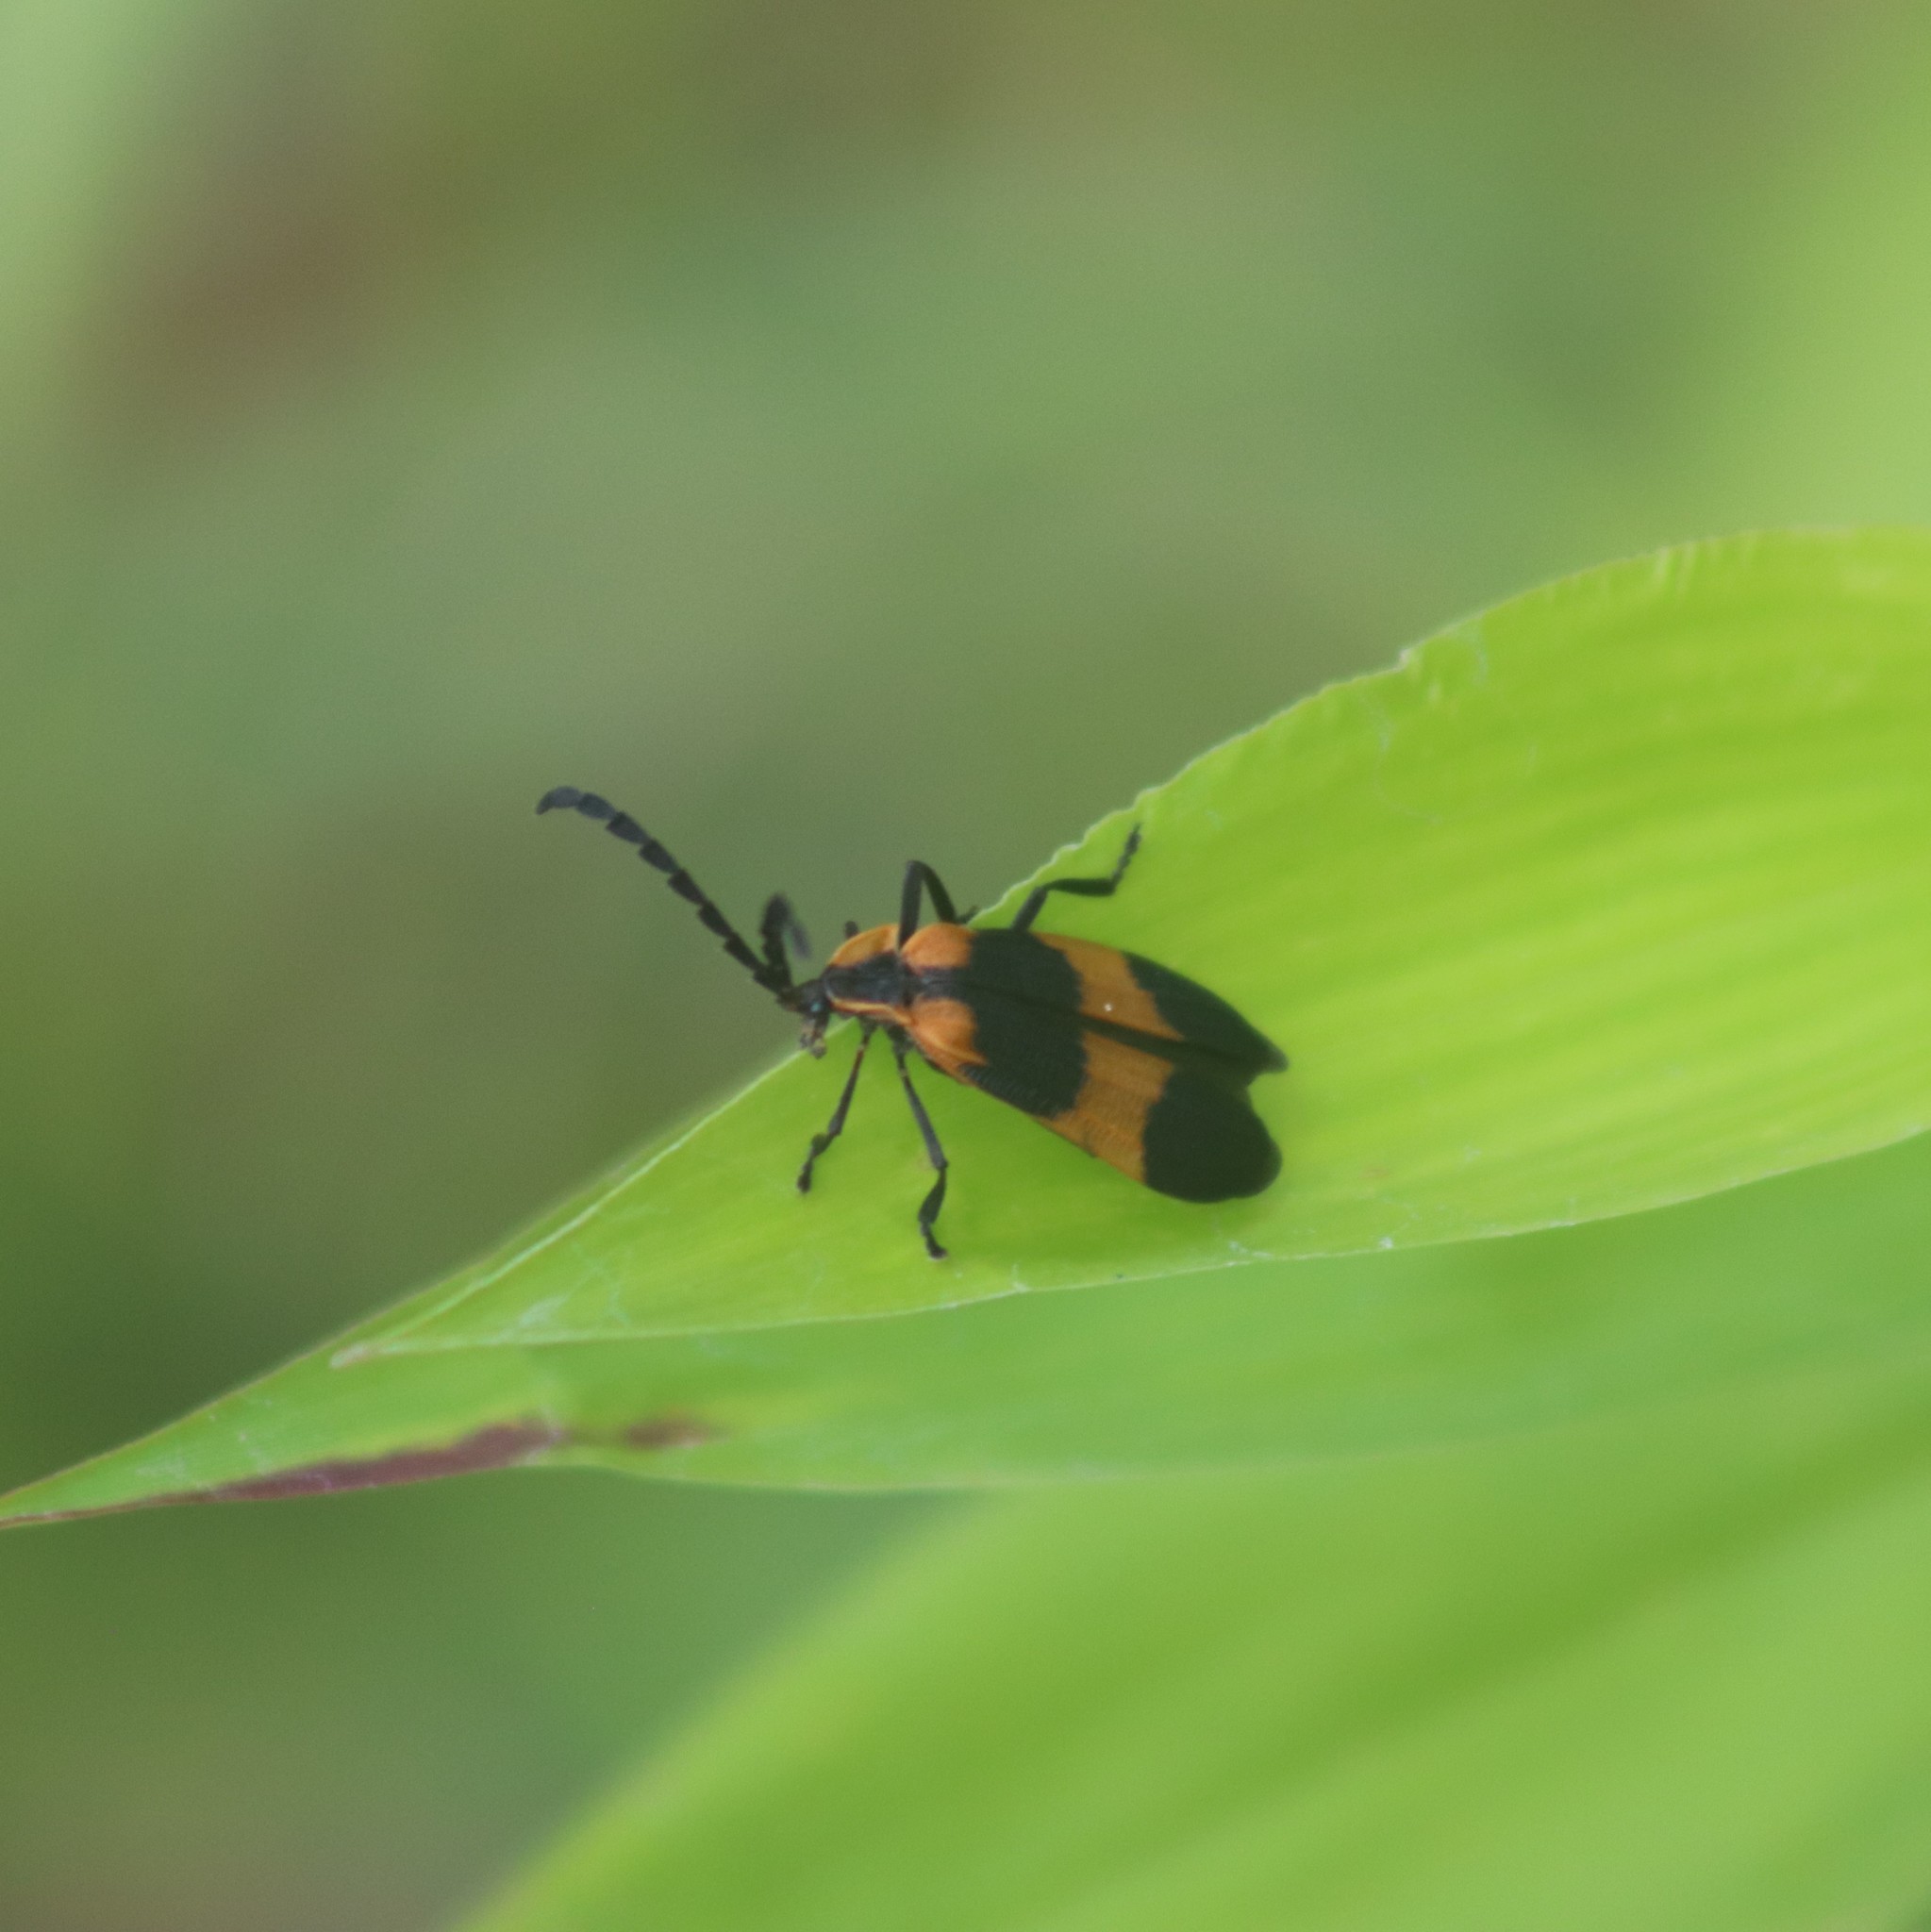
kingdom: Animalia
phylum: Arthropoda
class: Insecta
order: Coleoptera
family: Lycidae
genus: Calopteron
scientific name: Calopteron reticulatum
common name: Banded net-winged beetle
